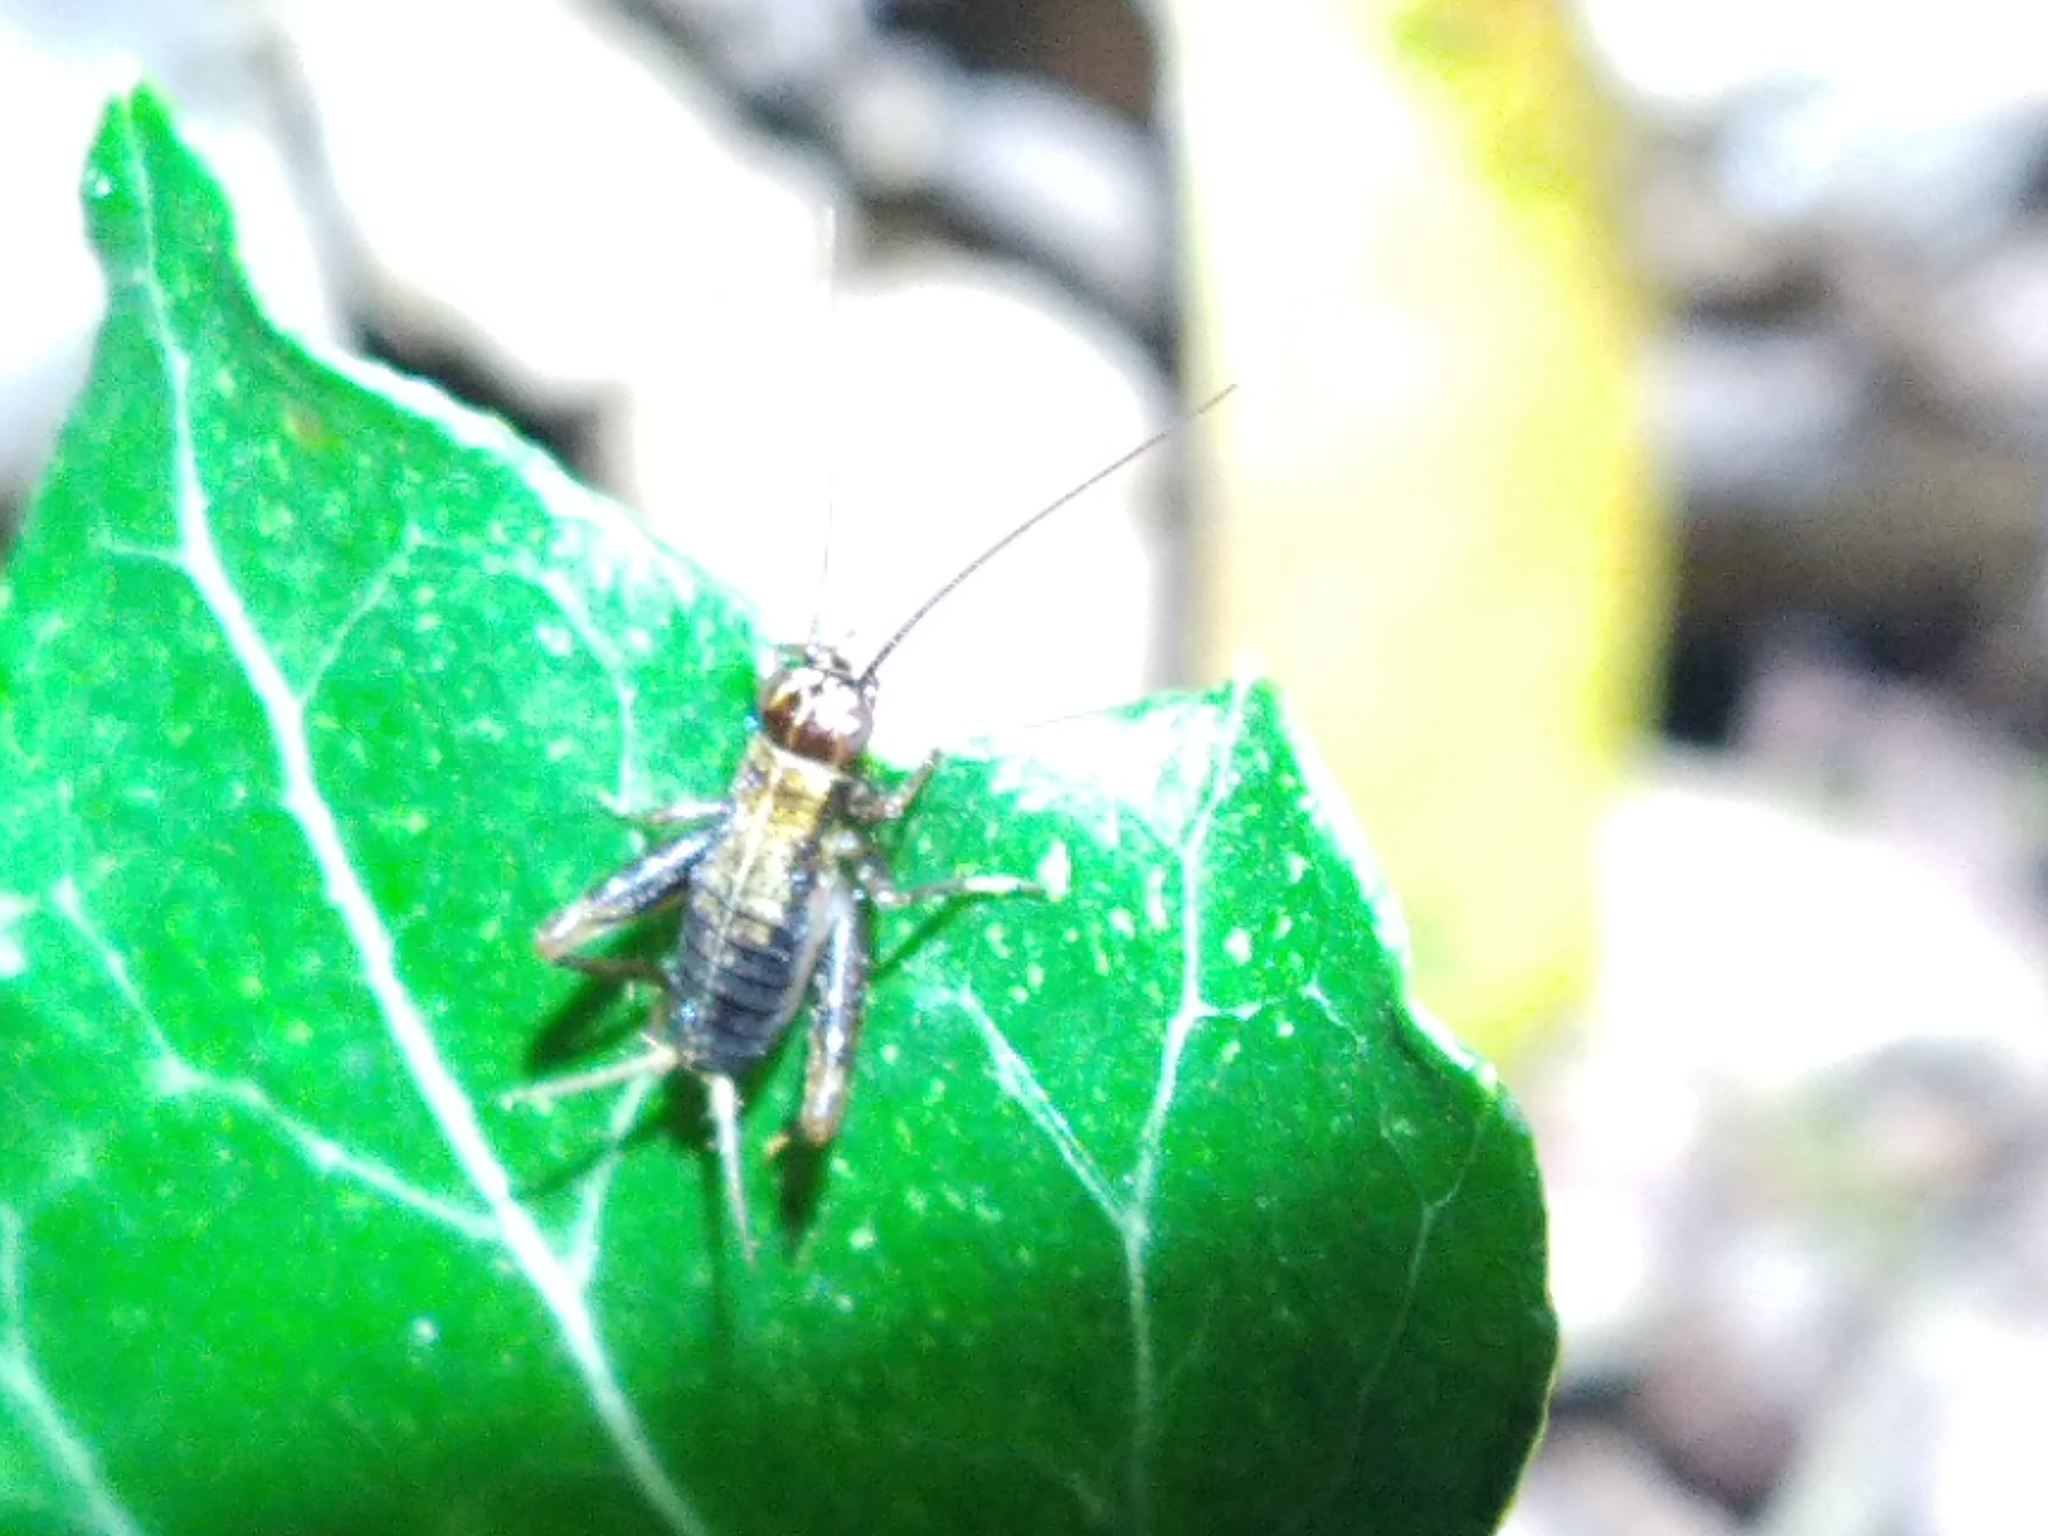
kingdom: Animalia
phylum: Arthropoda
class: Insecta
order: Orthoptera
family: Trigonidiidae
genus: Nemobius
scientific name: Nemobius sylvestris
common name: Wood-cricket
